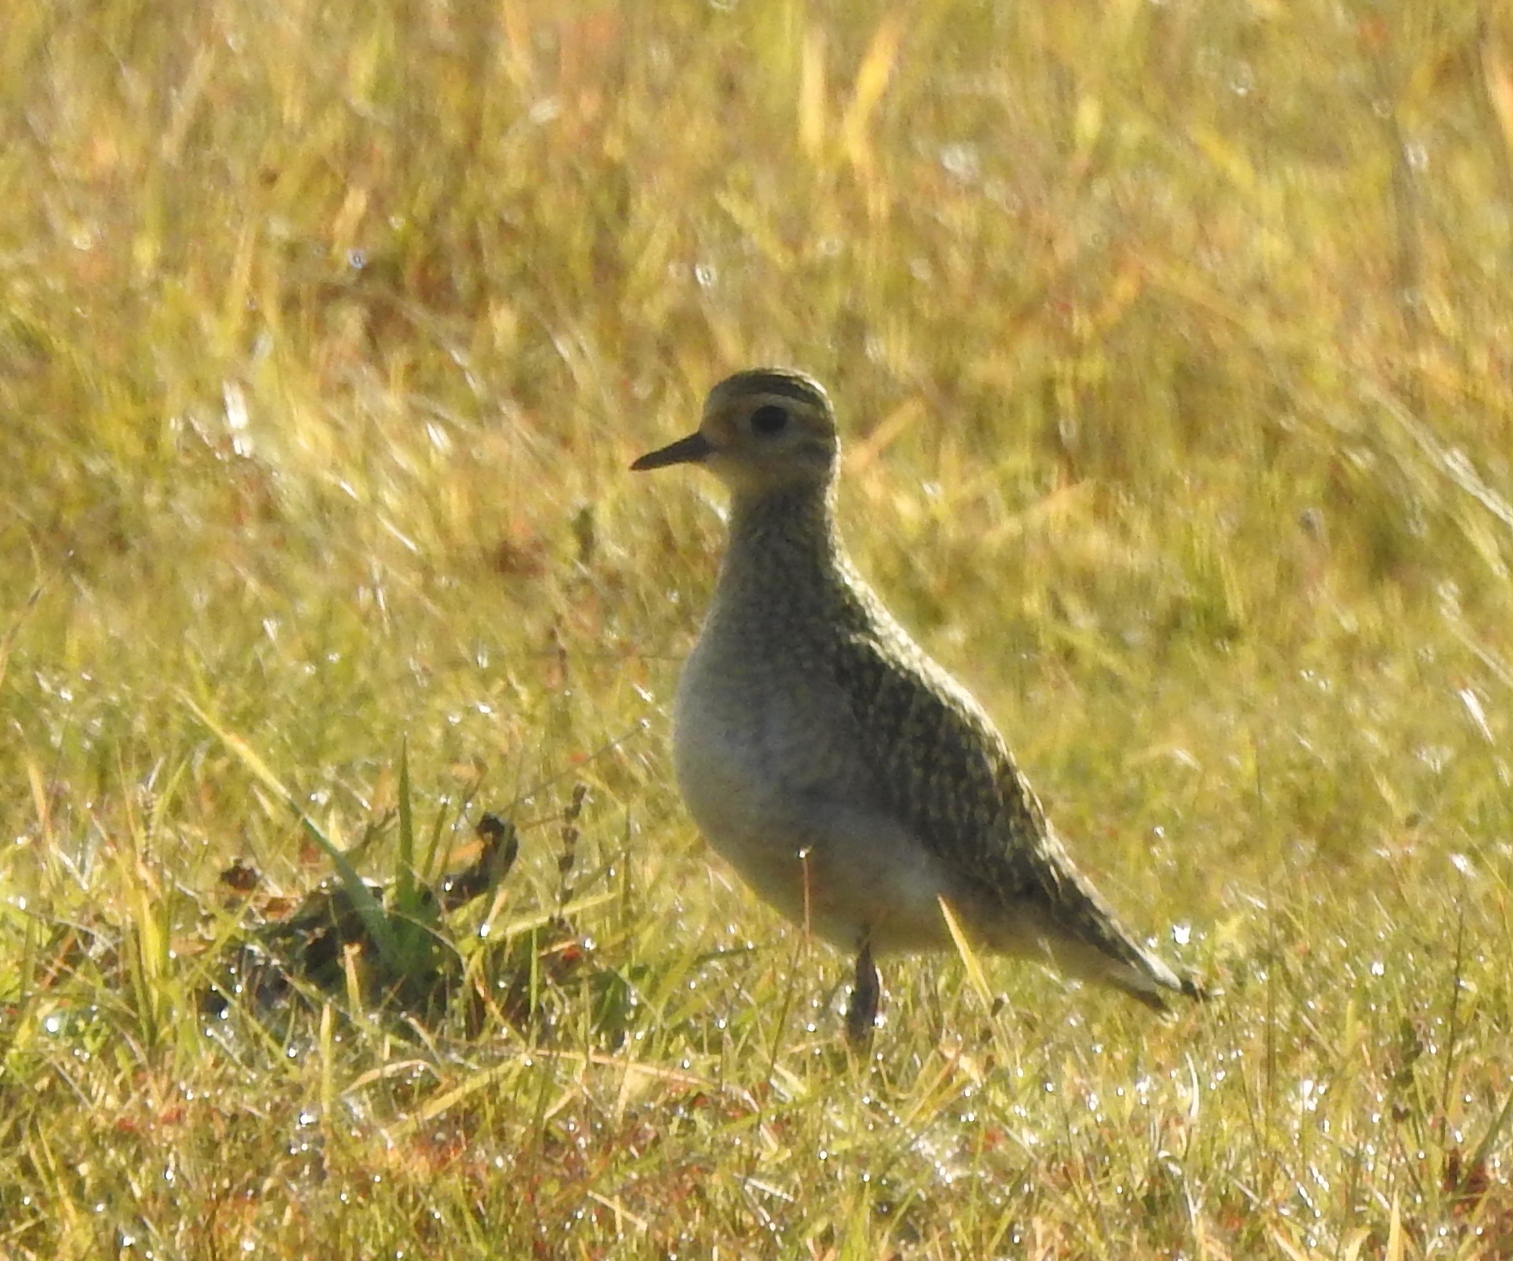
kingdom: Animalia
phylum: Chordata
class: Aves
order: Charadriiformes
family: Charadriidae
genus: Pluvialis
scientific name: Pluvialis fulva
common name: Pacific golden plover
